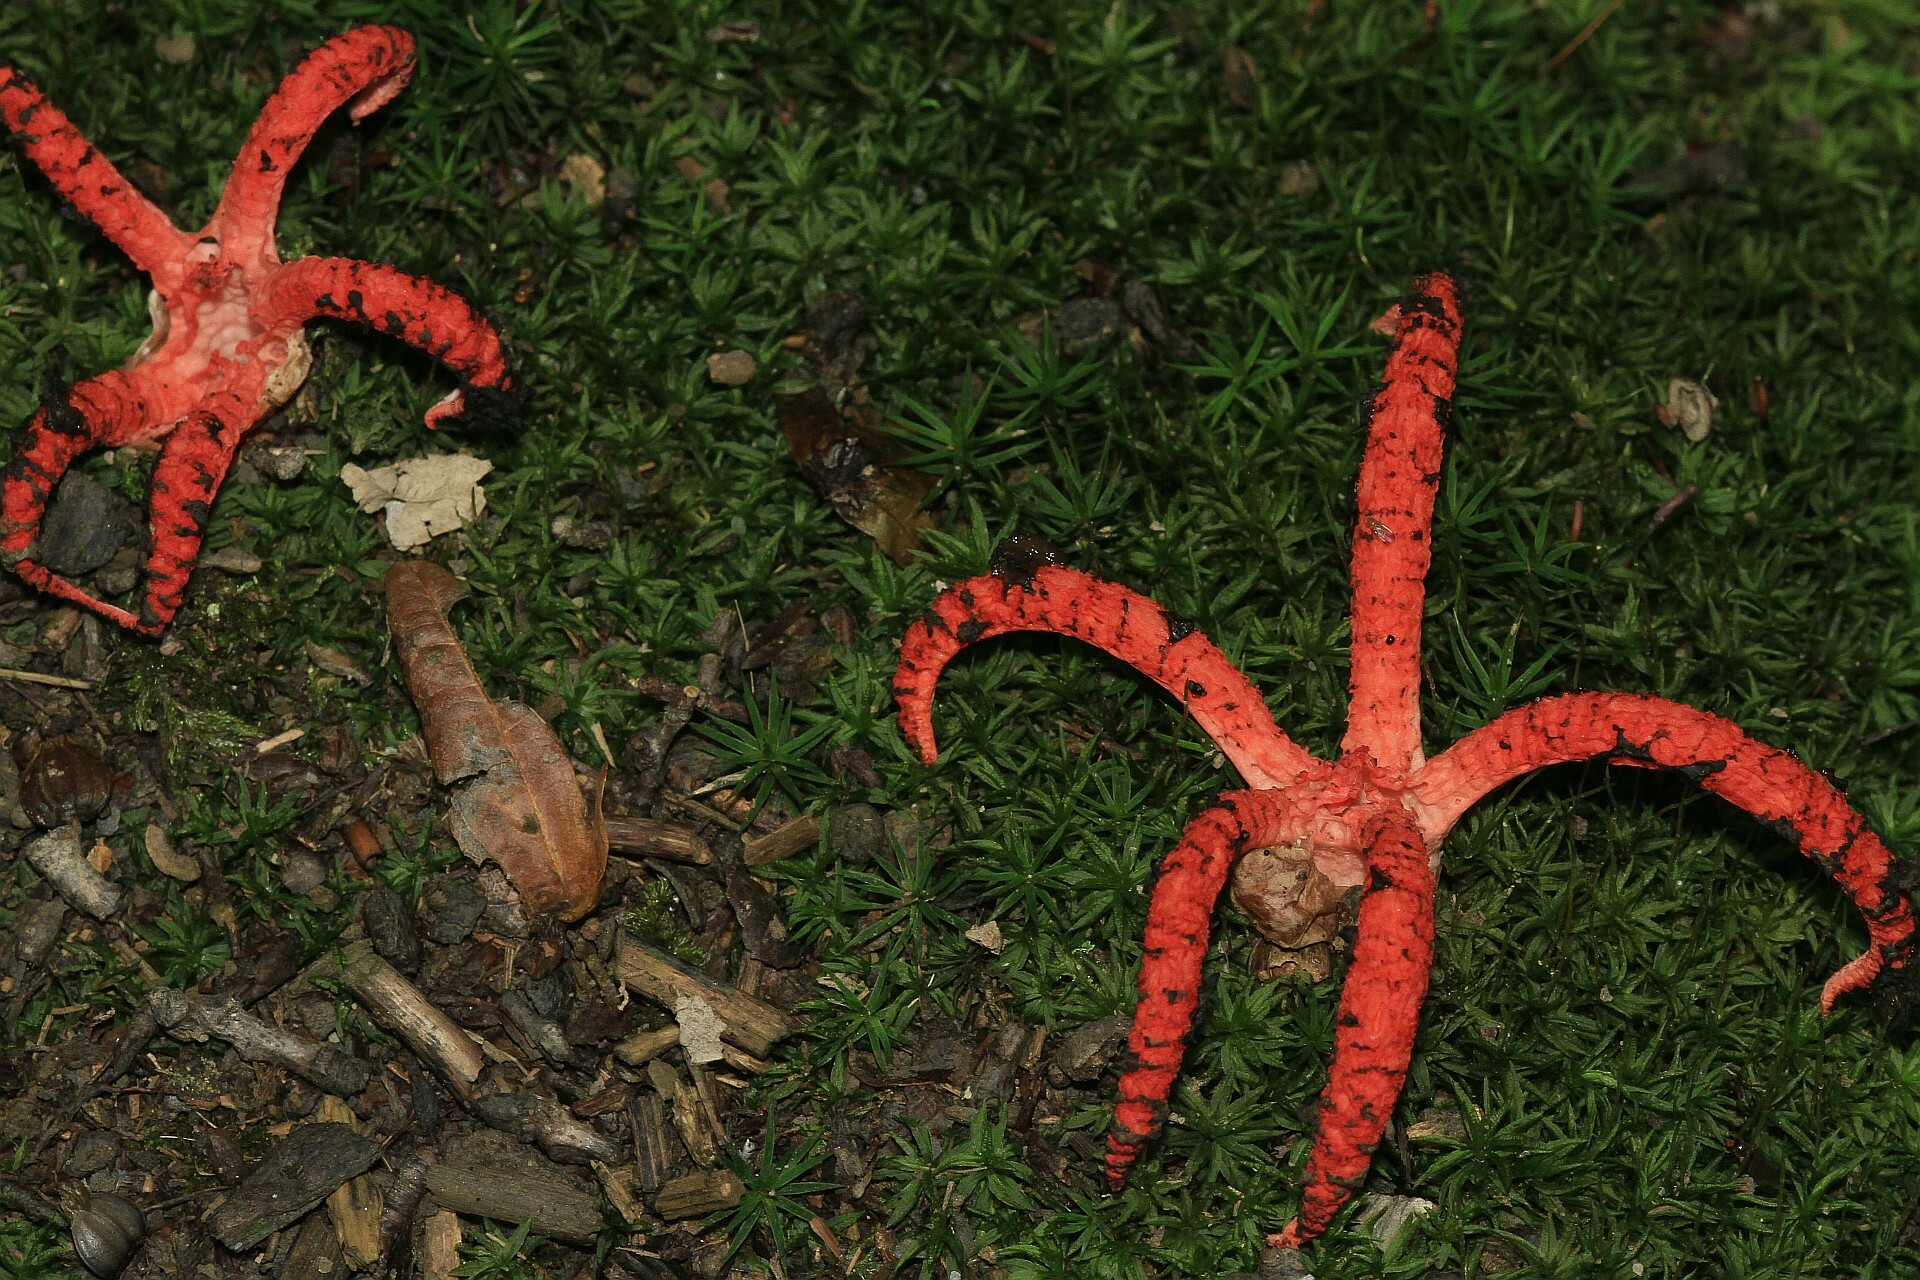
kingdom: Fungi
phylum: Basidiomycota
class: Agaricomycetes
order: Phallales
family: Phallaceae
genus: Clathrus
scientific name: Clathrus archeri
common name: Devil's fingers
